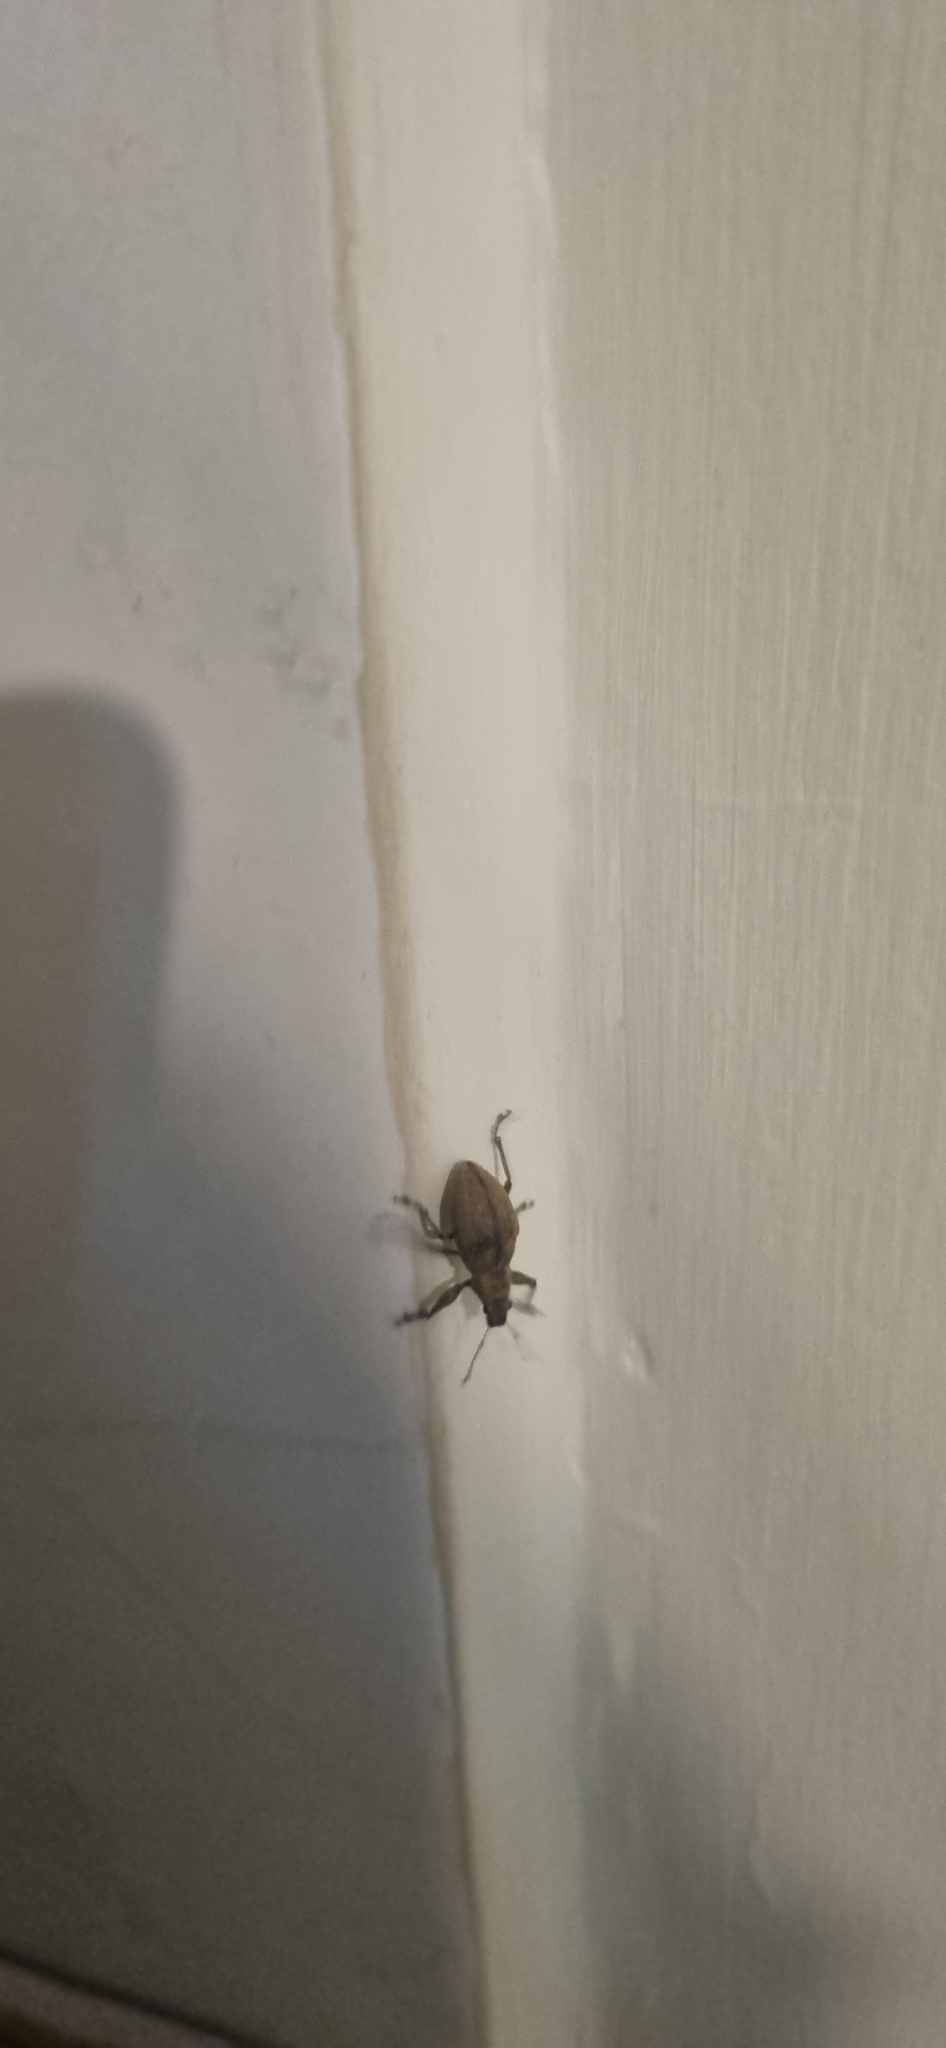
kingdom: Animalia
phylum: Arthropoda
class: Insecta
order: Coleoptera
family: Curculionidae
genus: Naupactus
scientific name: Naupactus versatilis
